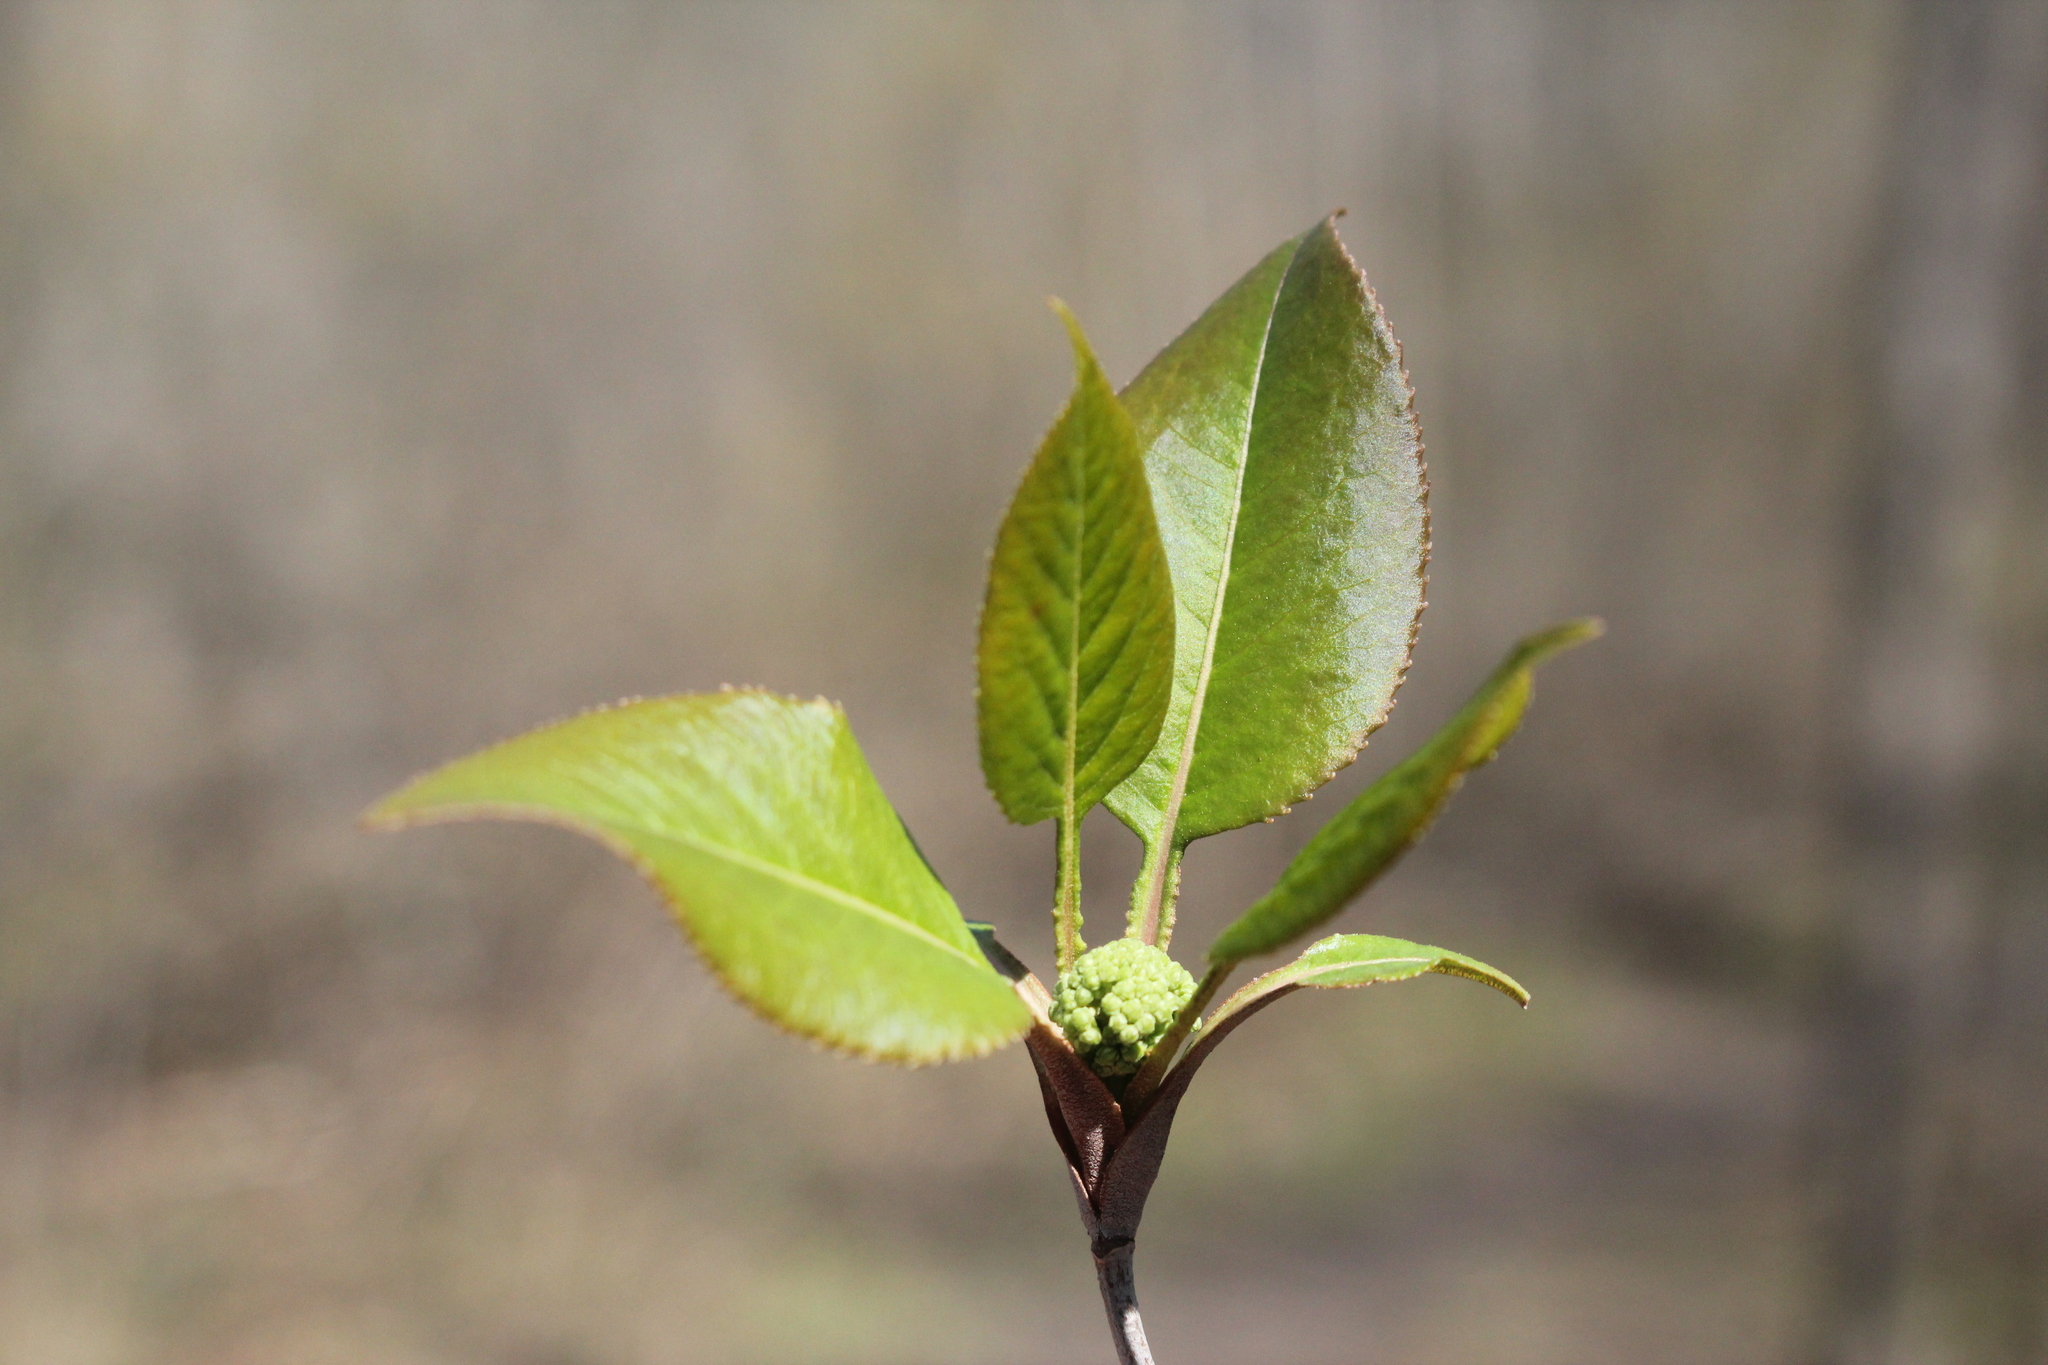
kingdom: Plantae
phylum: Tracheophyta
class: Magnoliopsida
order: Dipsacales
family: Viburnaceae
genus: Viburnum
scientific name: Viburnum lentago
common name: Black haw
